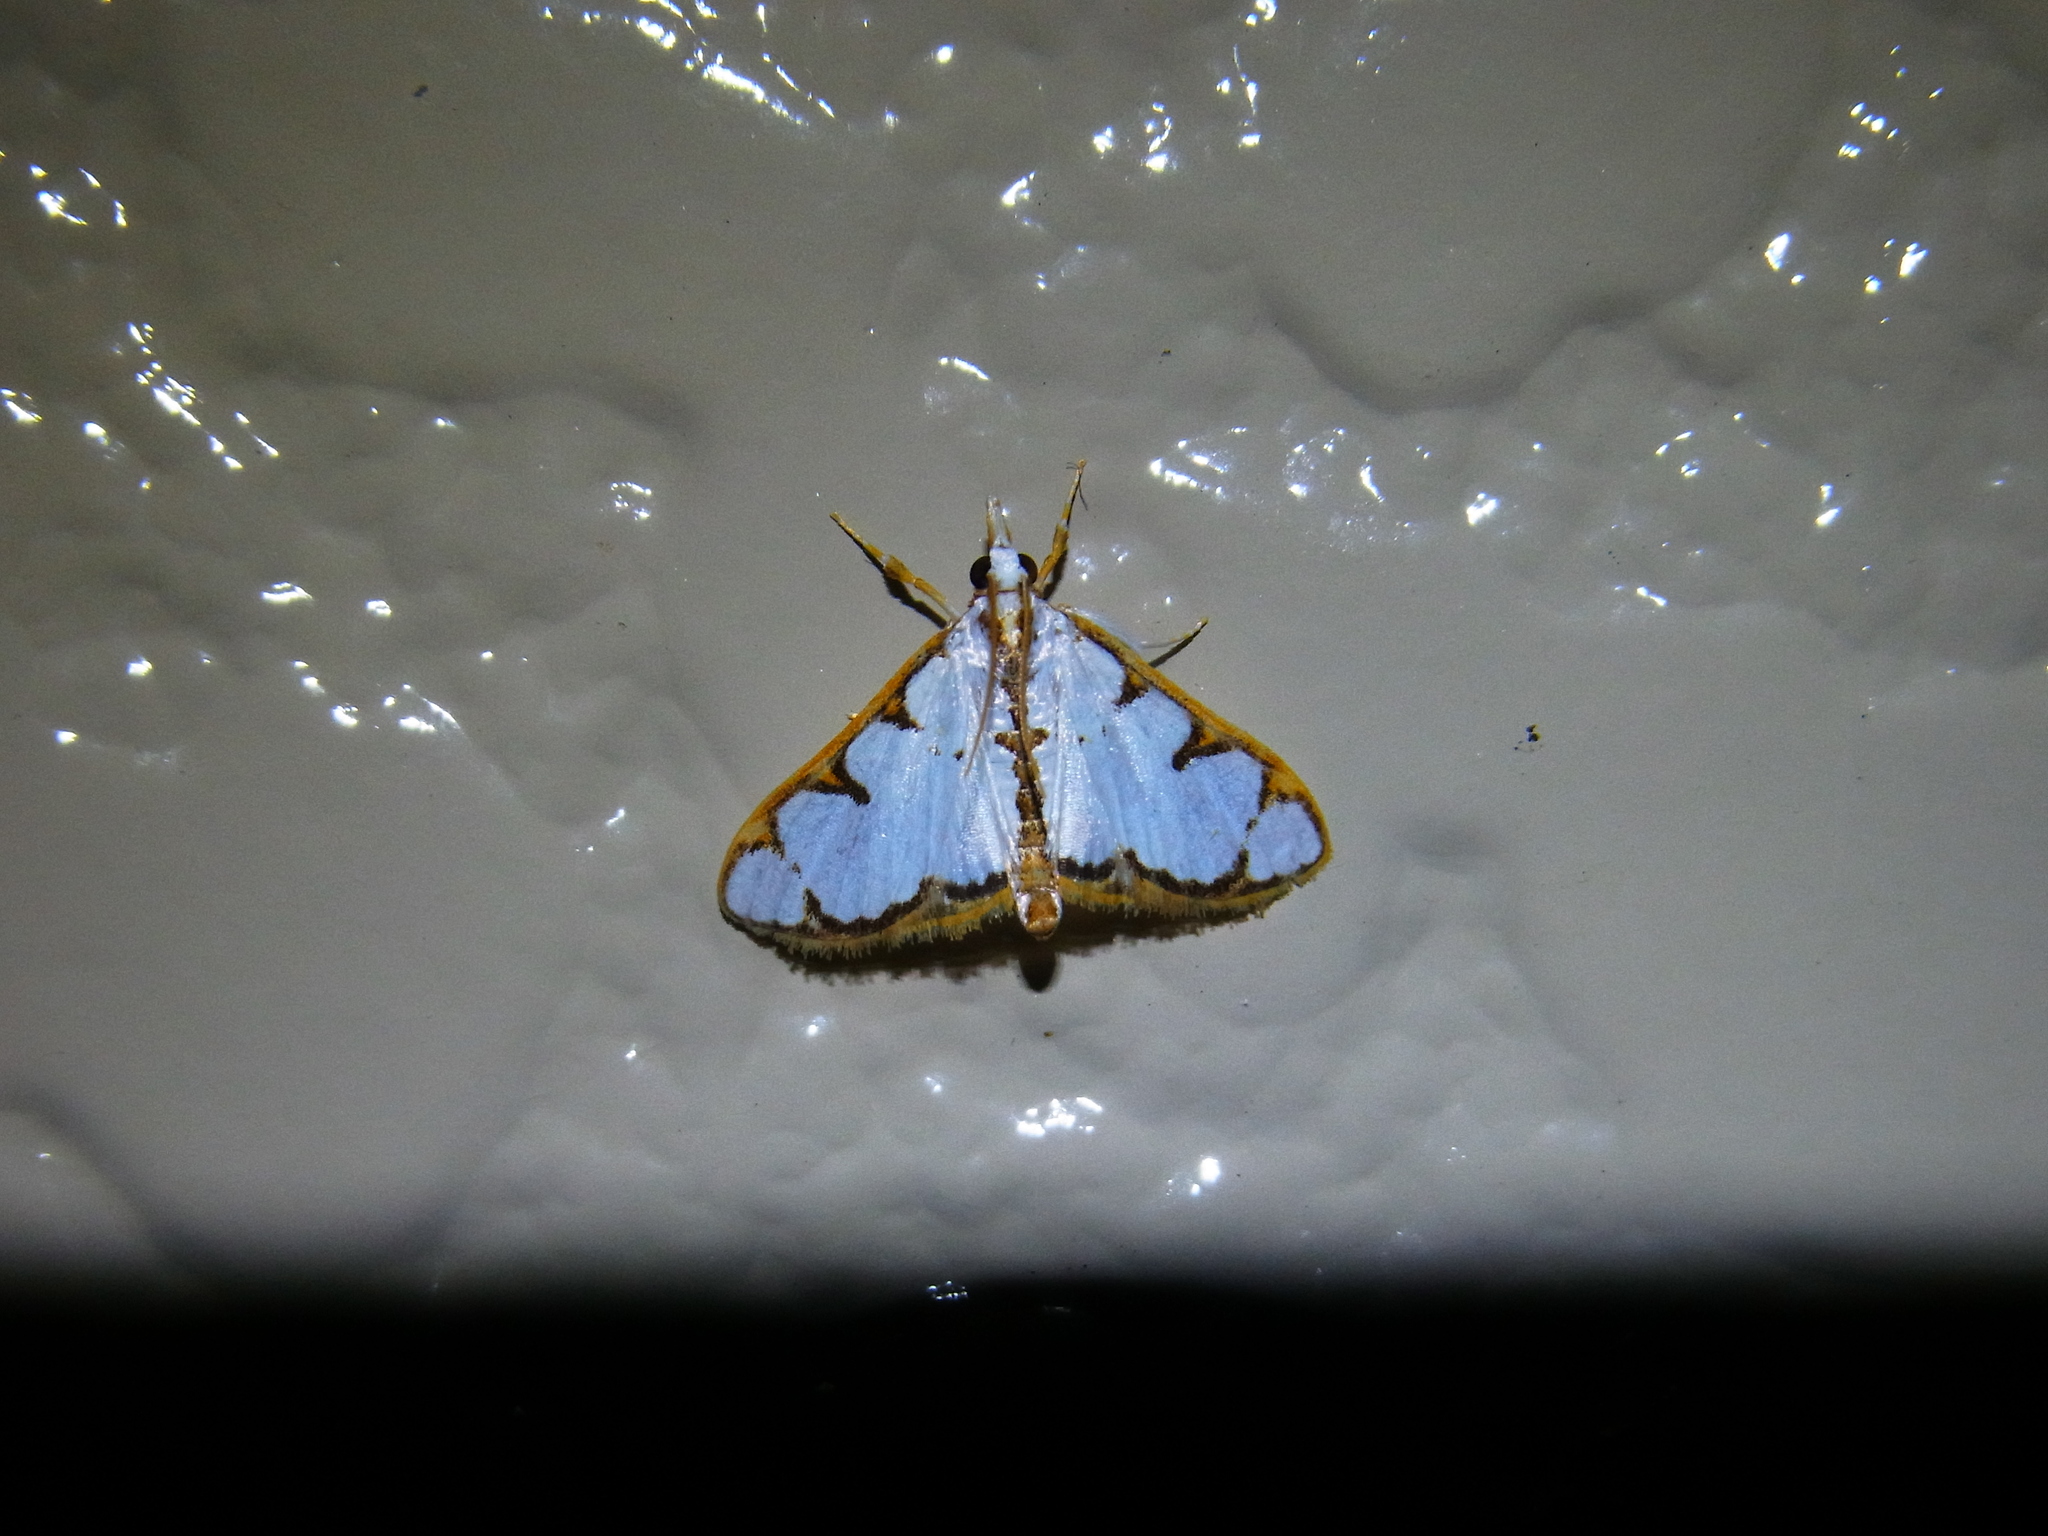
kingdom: Animalia
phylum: Arthropoda
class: Insecta
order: Lepidoptera
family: Crambidae
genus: Cirrhochrista
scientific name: Cirrhochrista brizoalis
